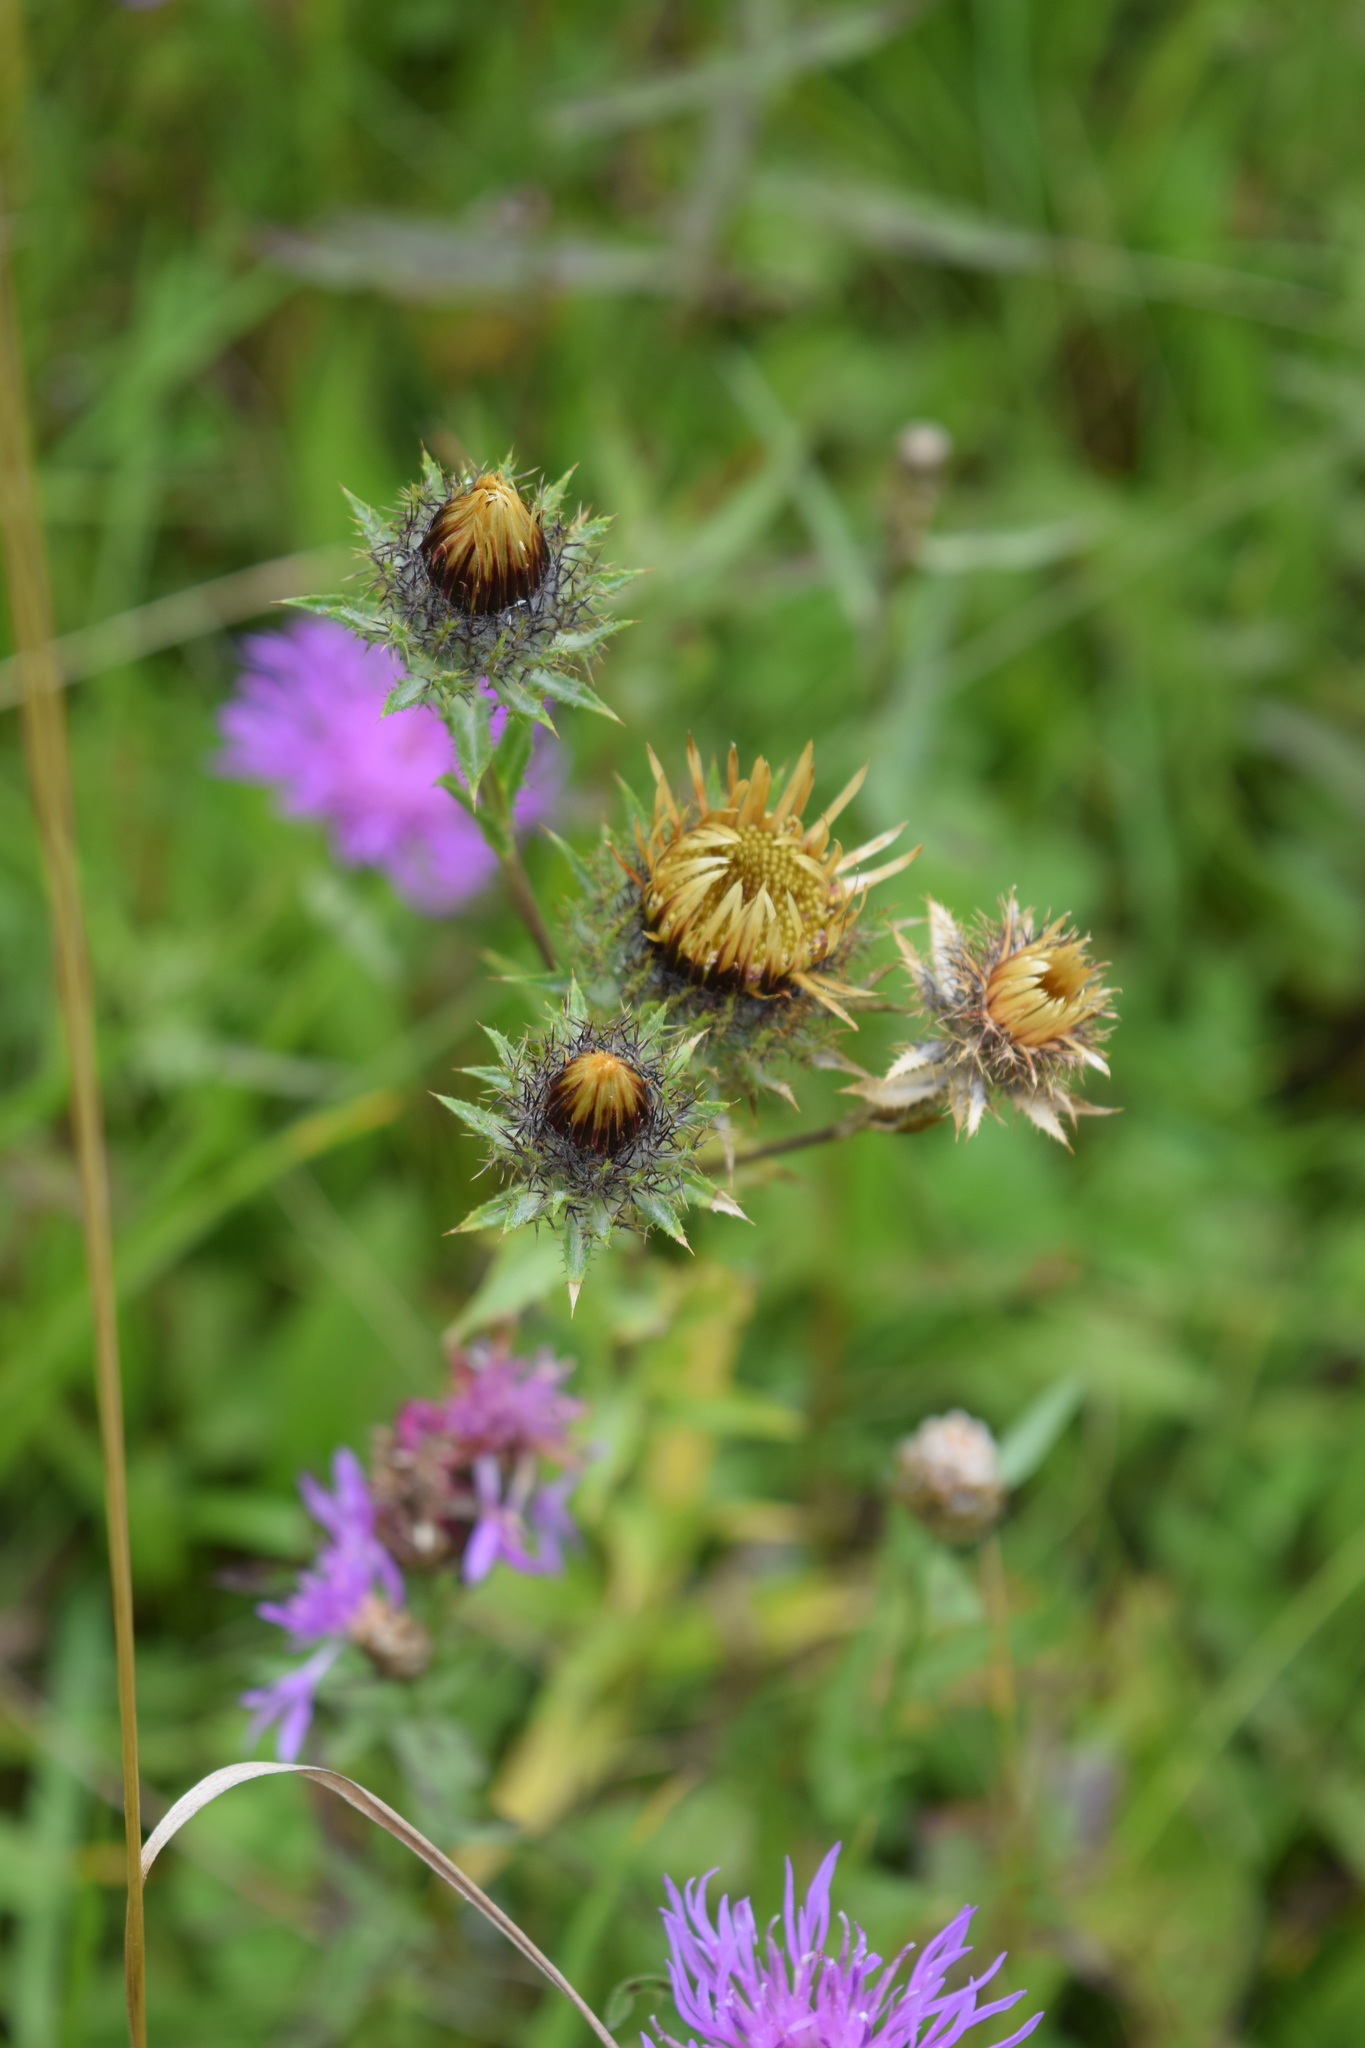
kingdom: Plantae
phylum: Tracheophyta
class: Magnoliopsida
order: Asterales
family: Asteraceae
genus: Carlina
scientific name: Carlina biebersteinii
